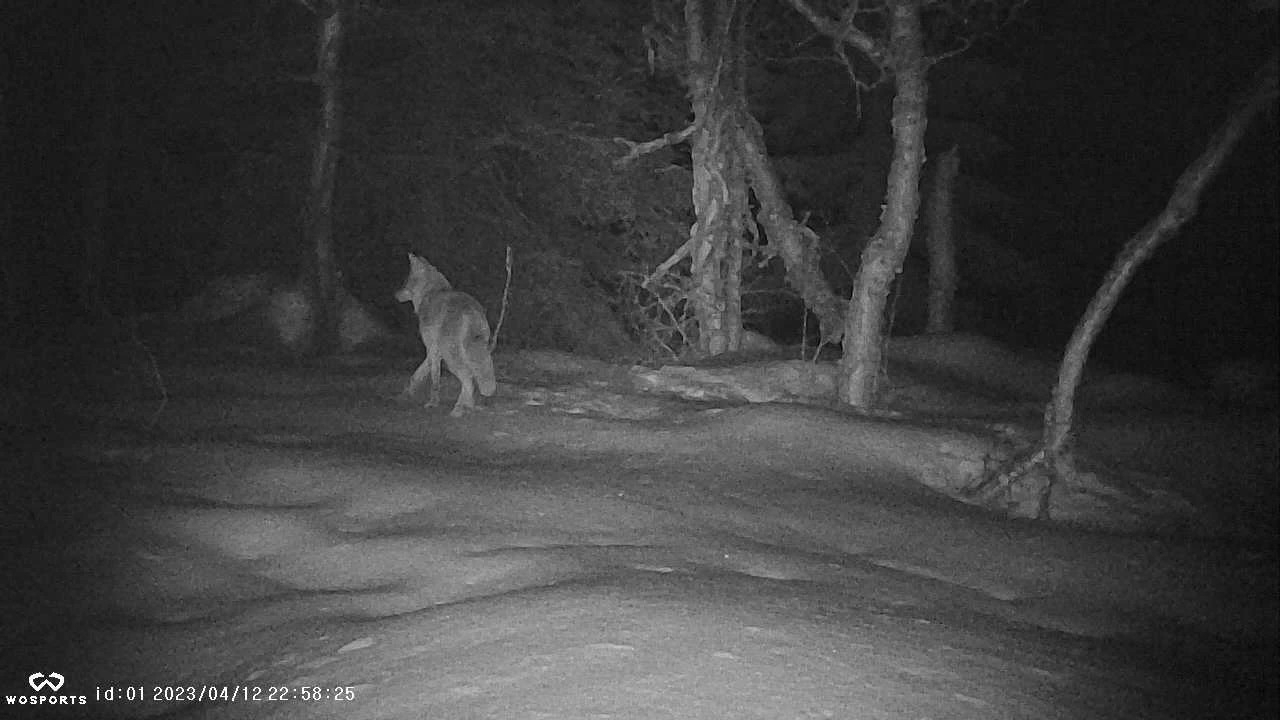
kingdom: Animalia
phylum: Chordata
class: Mammalia
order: Carnivora
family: Canidae
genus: Canis
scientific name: Canis latrans
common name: Coyote
